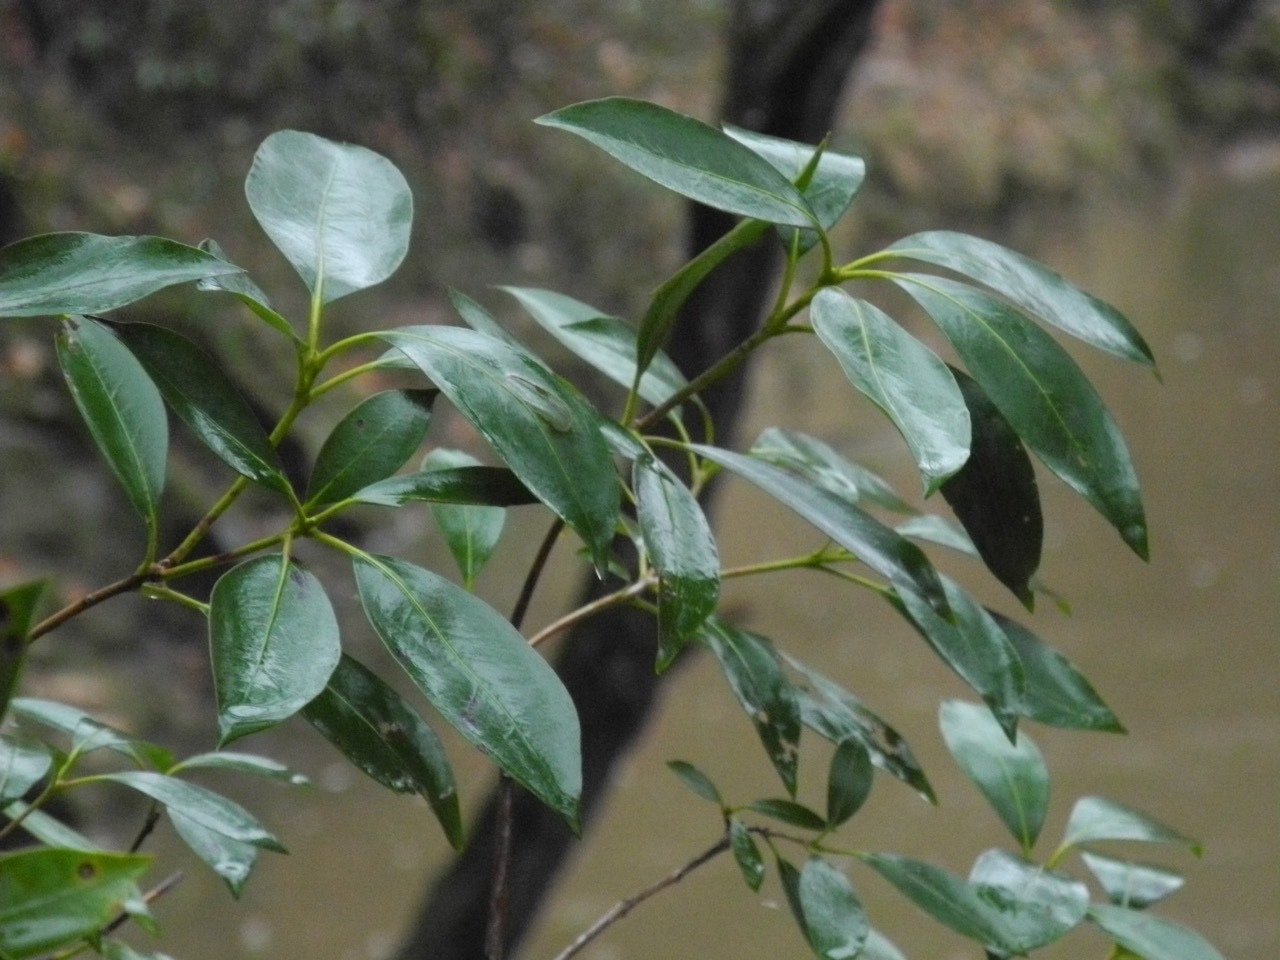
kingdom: Plantae
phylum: Tracheophyta
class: Magnoliopsida
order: Ericales
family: Ericaceae
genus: Kalmia
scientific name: Kalmia latifolia
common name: Mountain-laurel
